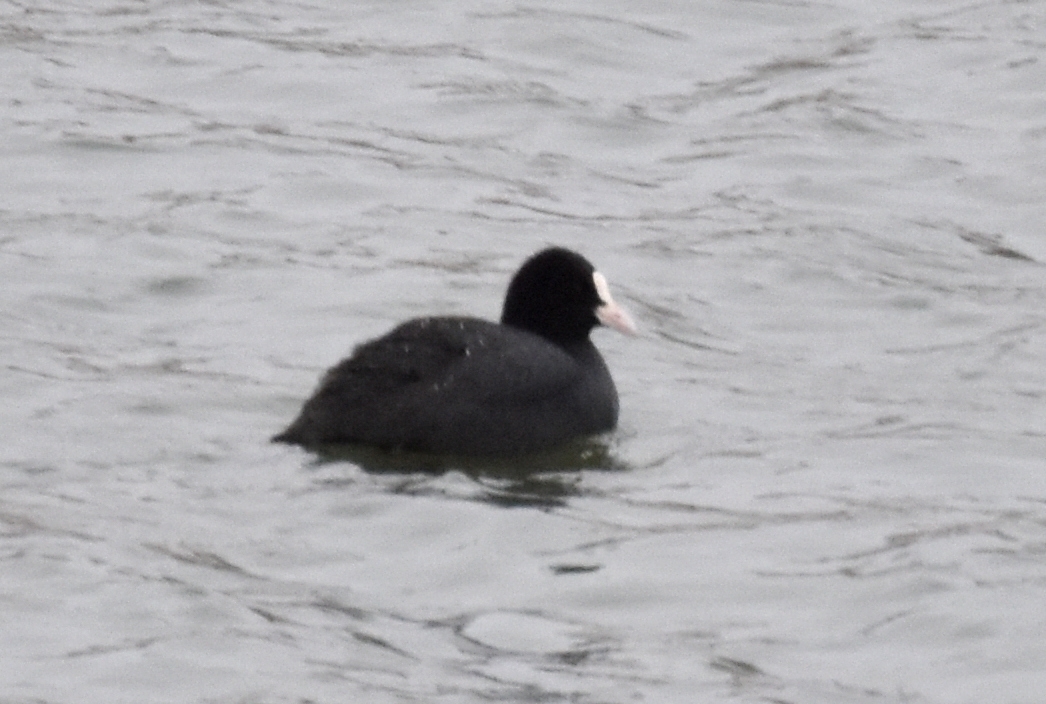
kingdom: Animalia
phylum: Chordata
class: Aves
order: Gruiformes
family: Rallidae
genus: Fulica
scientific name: Fulica atra
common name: Eurasian coot
